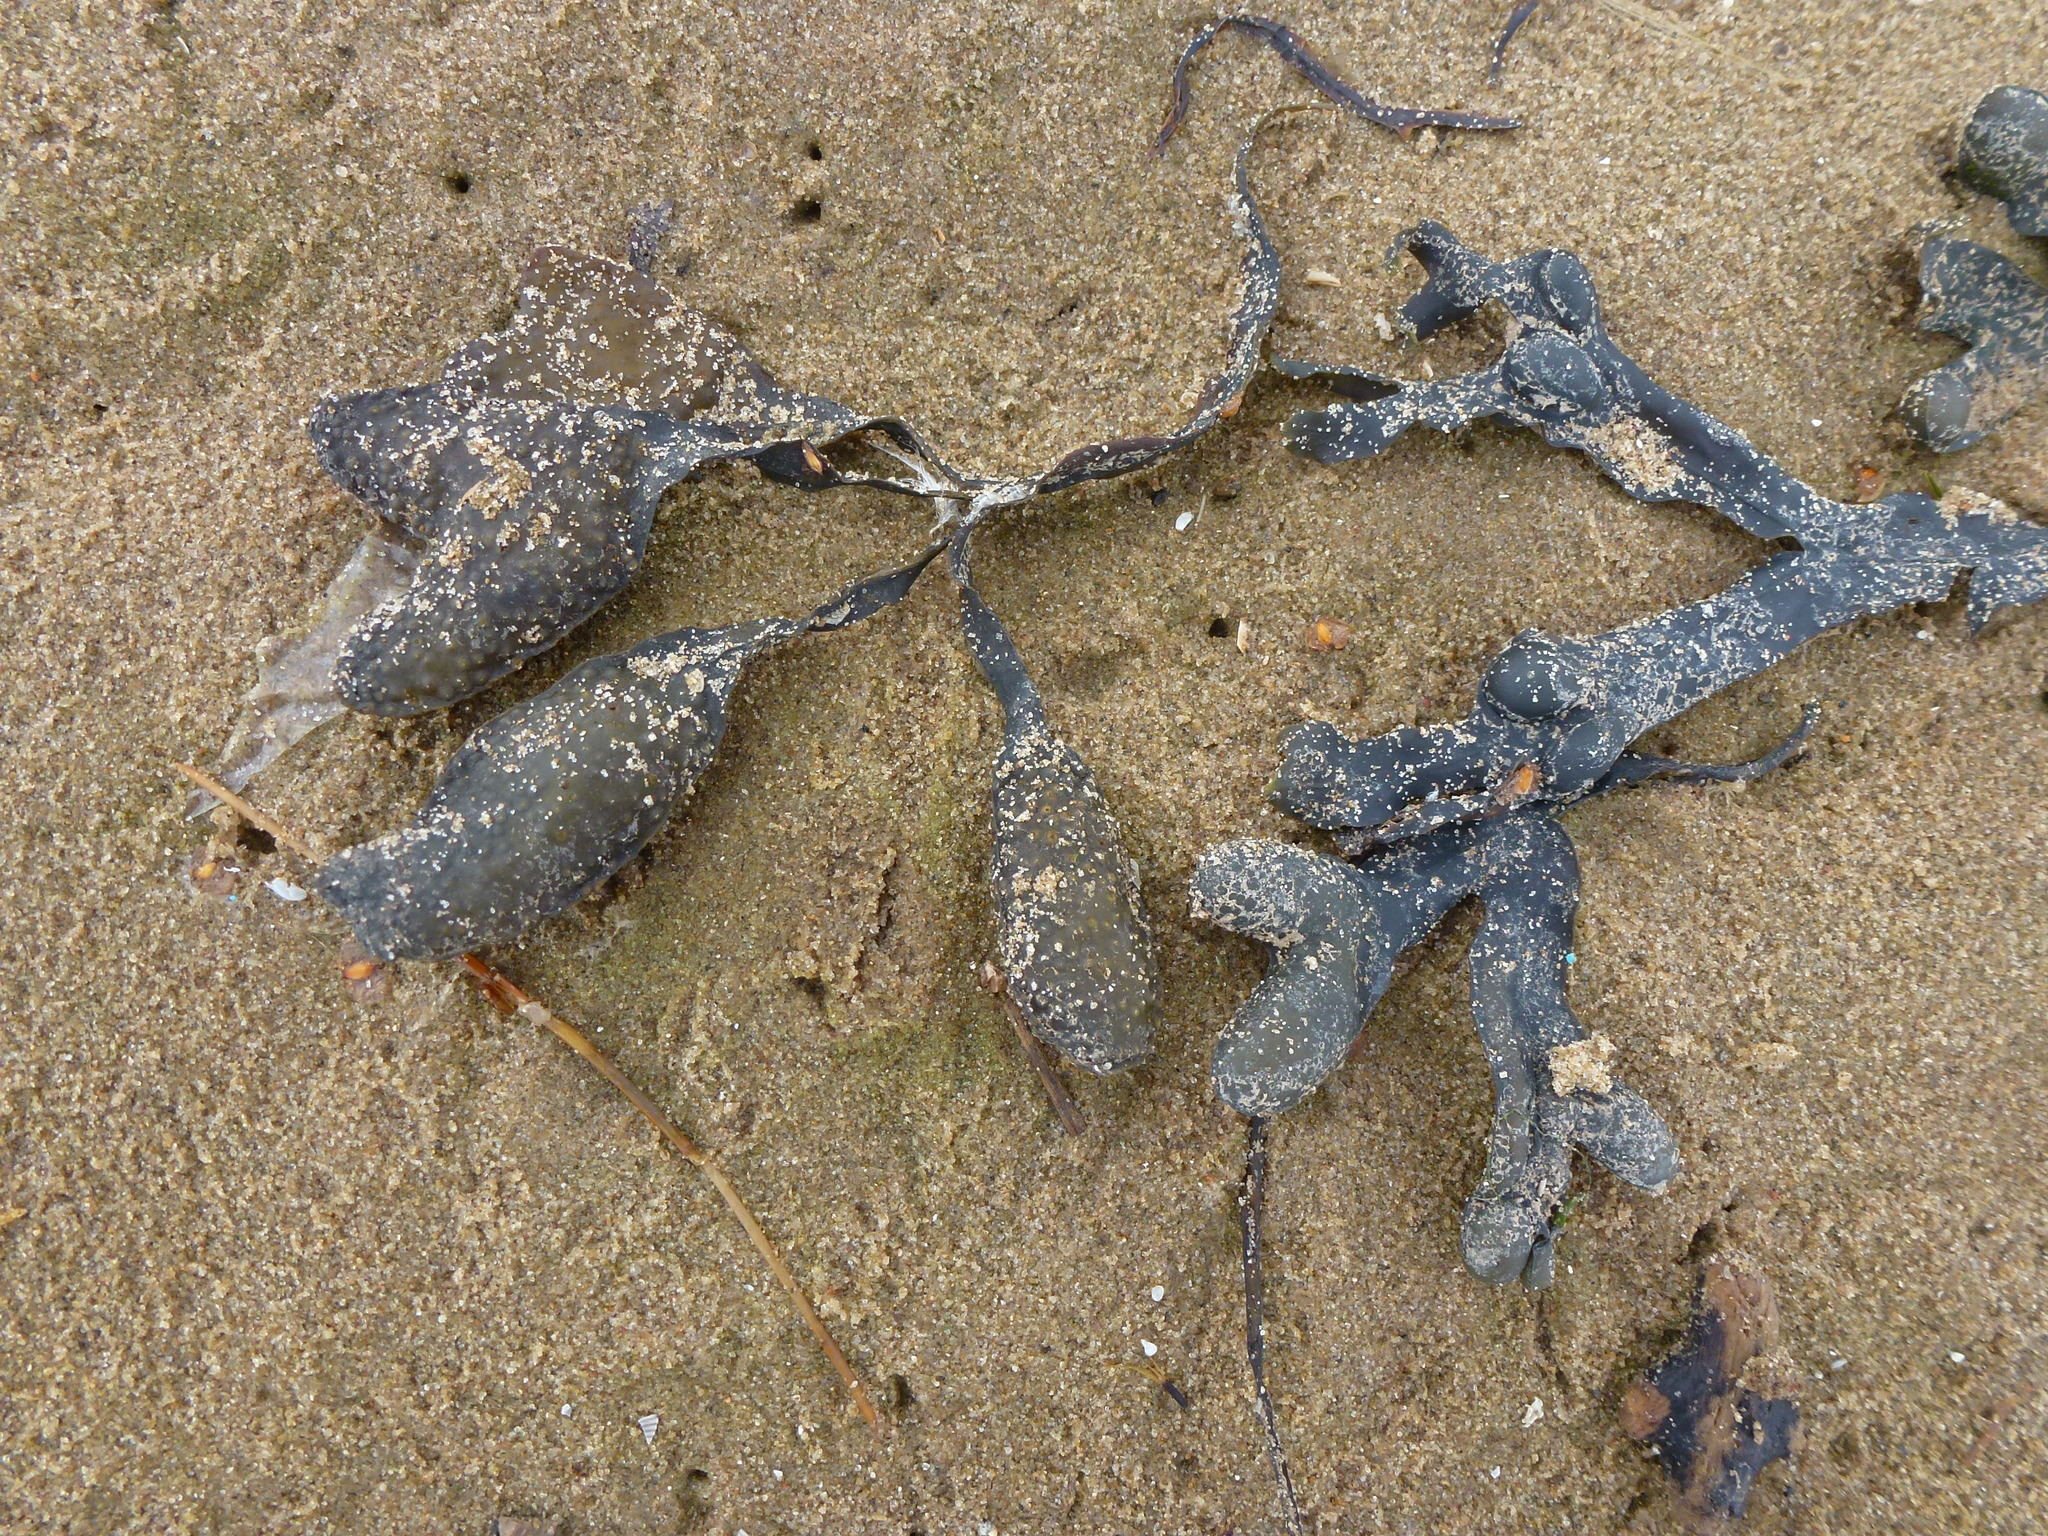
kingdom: Chromista
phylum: Ochrophyta
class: Phaeophyceae
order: Fucales
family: Fucaceae
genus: Fucus
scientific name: Fucus vesiculosus
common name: Bladder wrack
